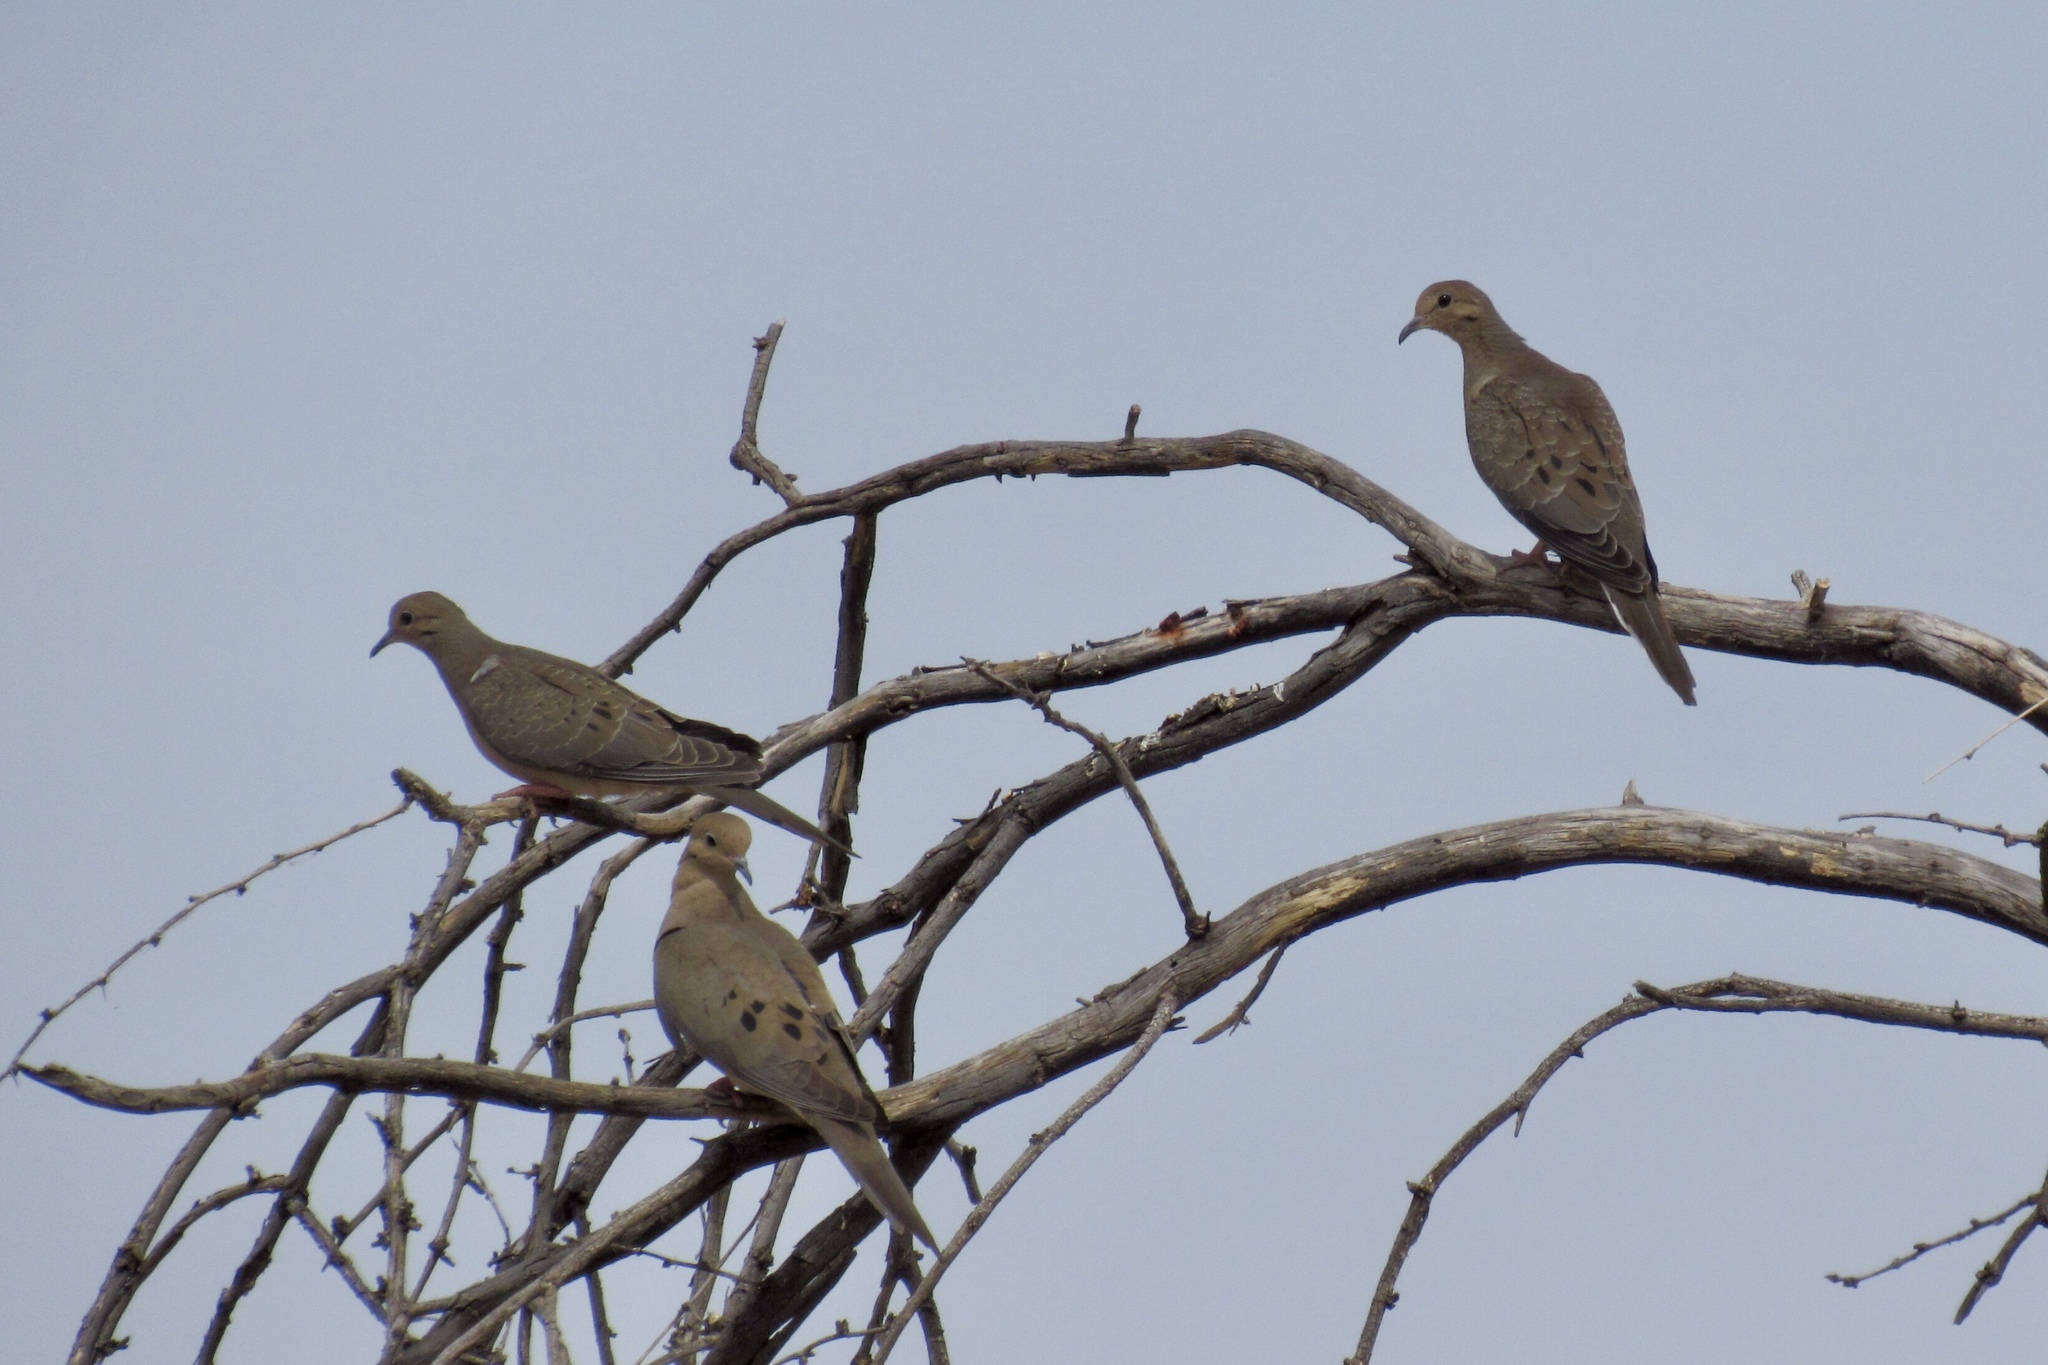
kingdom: Animalia
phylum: Chordata
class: Aves
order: Columbiformes
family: Columbidae
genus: Zenaida
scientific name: Zenaida macroura
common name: Mourning dove
